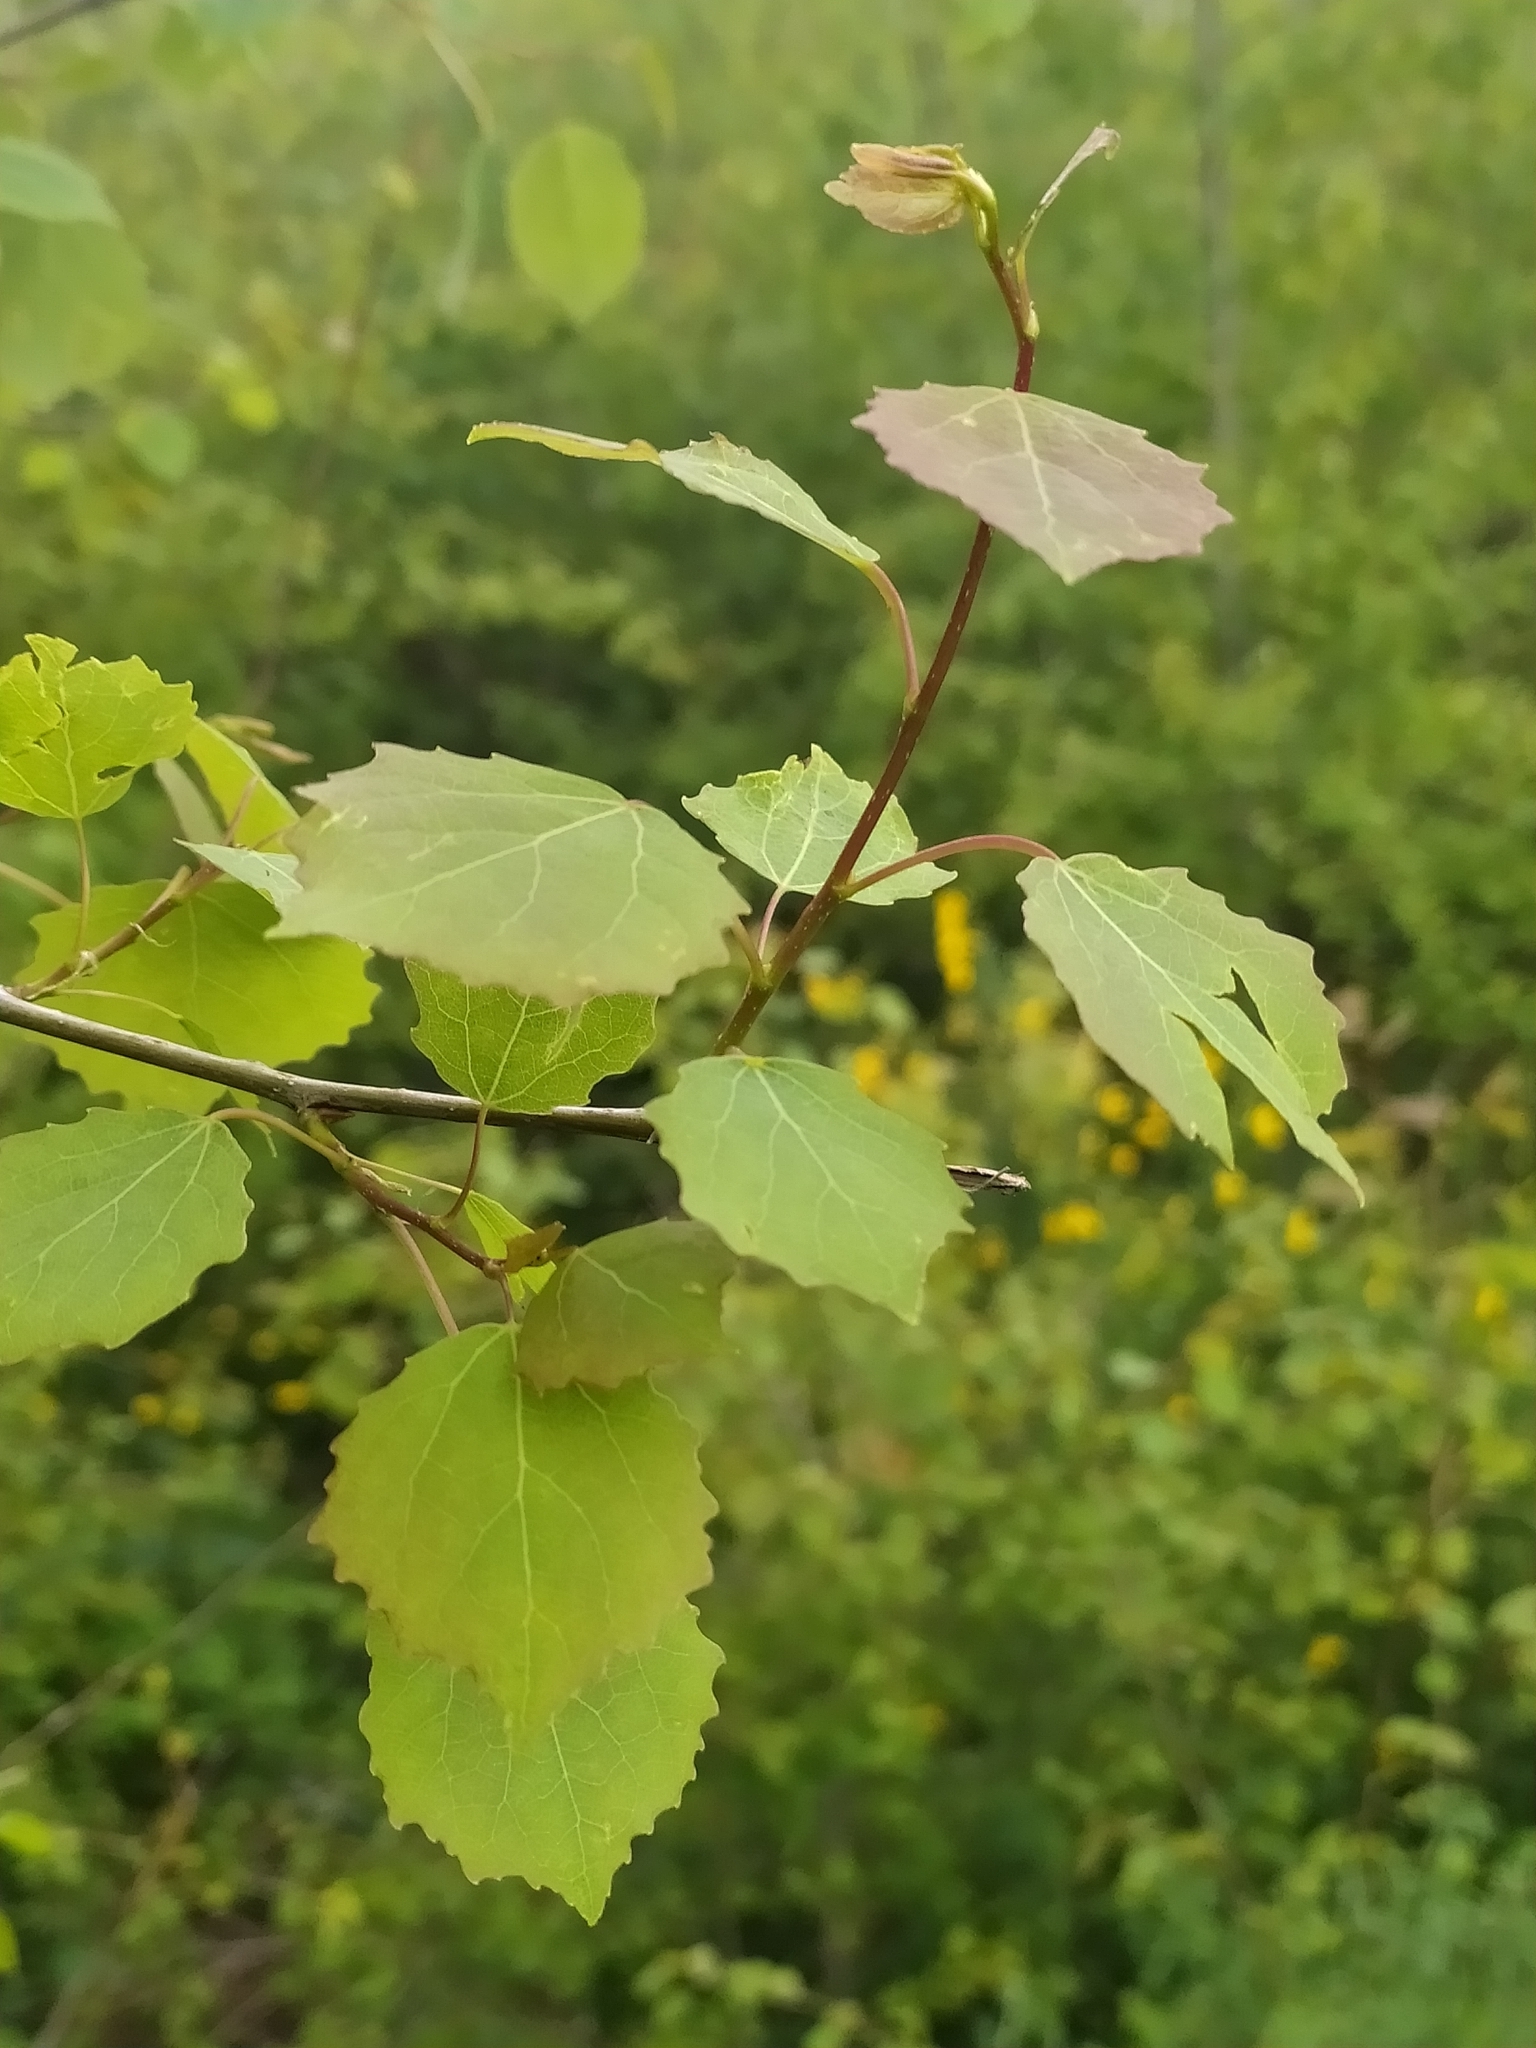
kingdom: Plantae
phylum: Tracheophyta
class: Magnoliopsida
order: Malpighiales
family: Salicaceae
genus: Populus
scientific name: Populus tremula
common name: European aspen
